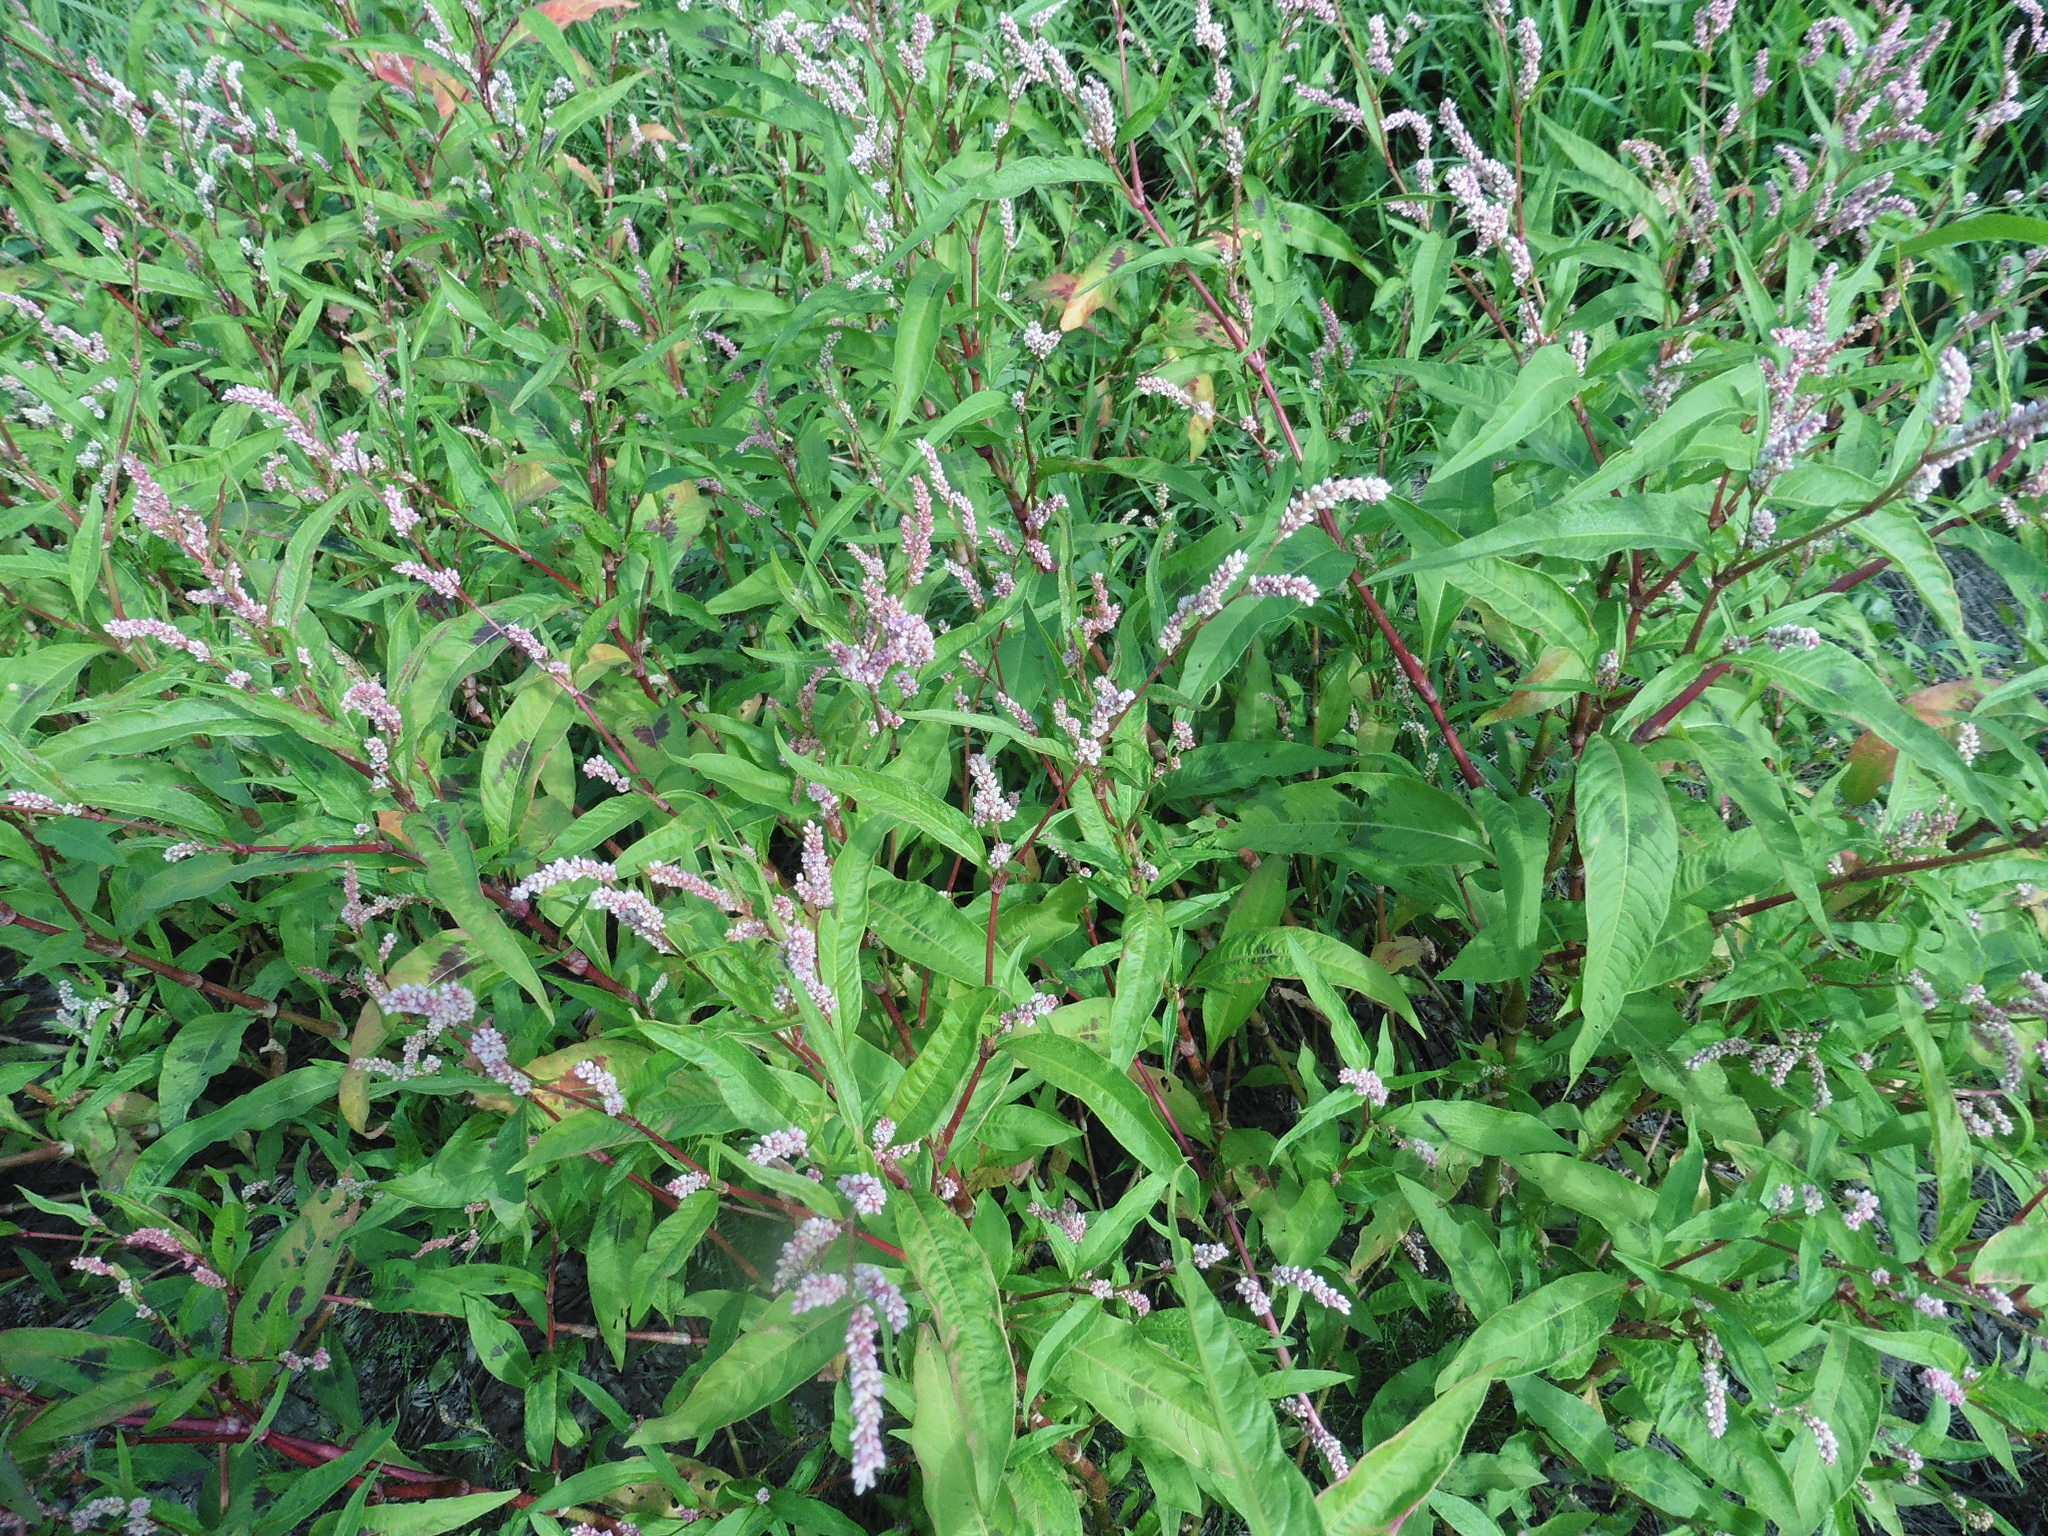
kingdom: Plantae
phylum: Tracheophyta
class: Magnoliopsida
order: Caryophyllales
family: Polygonaceae
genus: Persicaria
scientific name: Persicaria lapathifolia
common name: Curlytop knotweed
